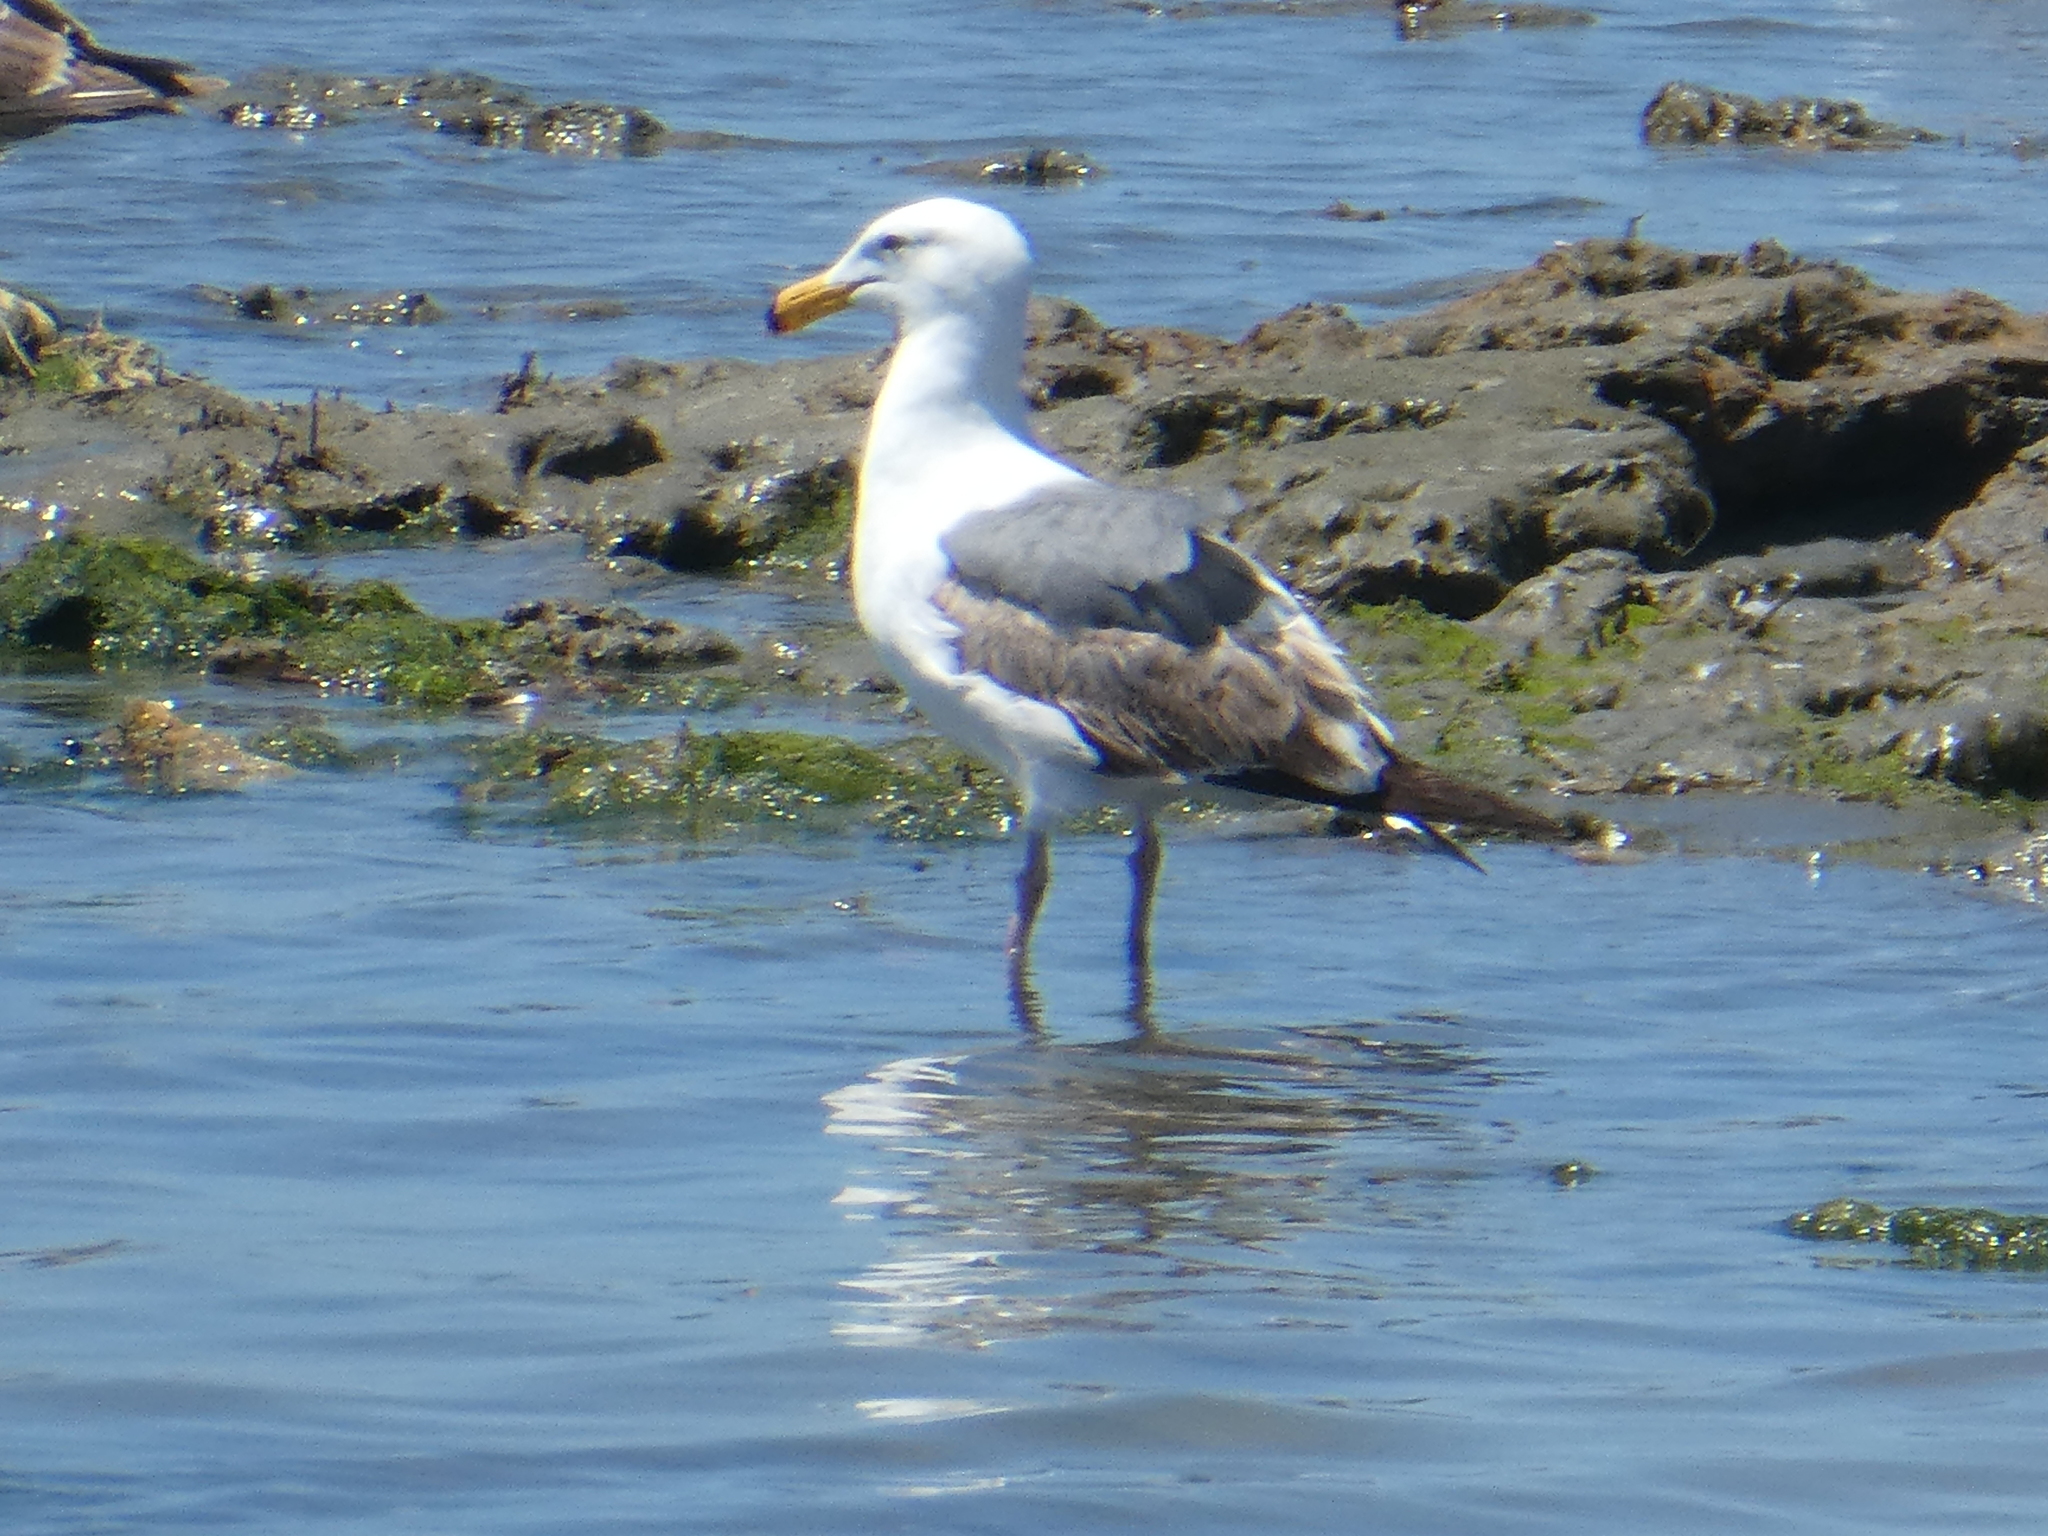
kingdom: Animalia
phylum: Chordata
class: Aves
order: Charadriiformes
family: Laridae
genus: Larus
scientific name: Larus occidentalis
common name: Western gull
